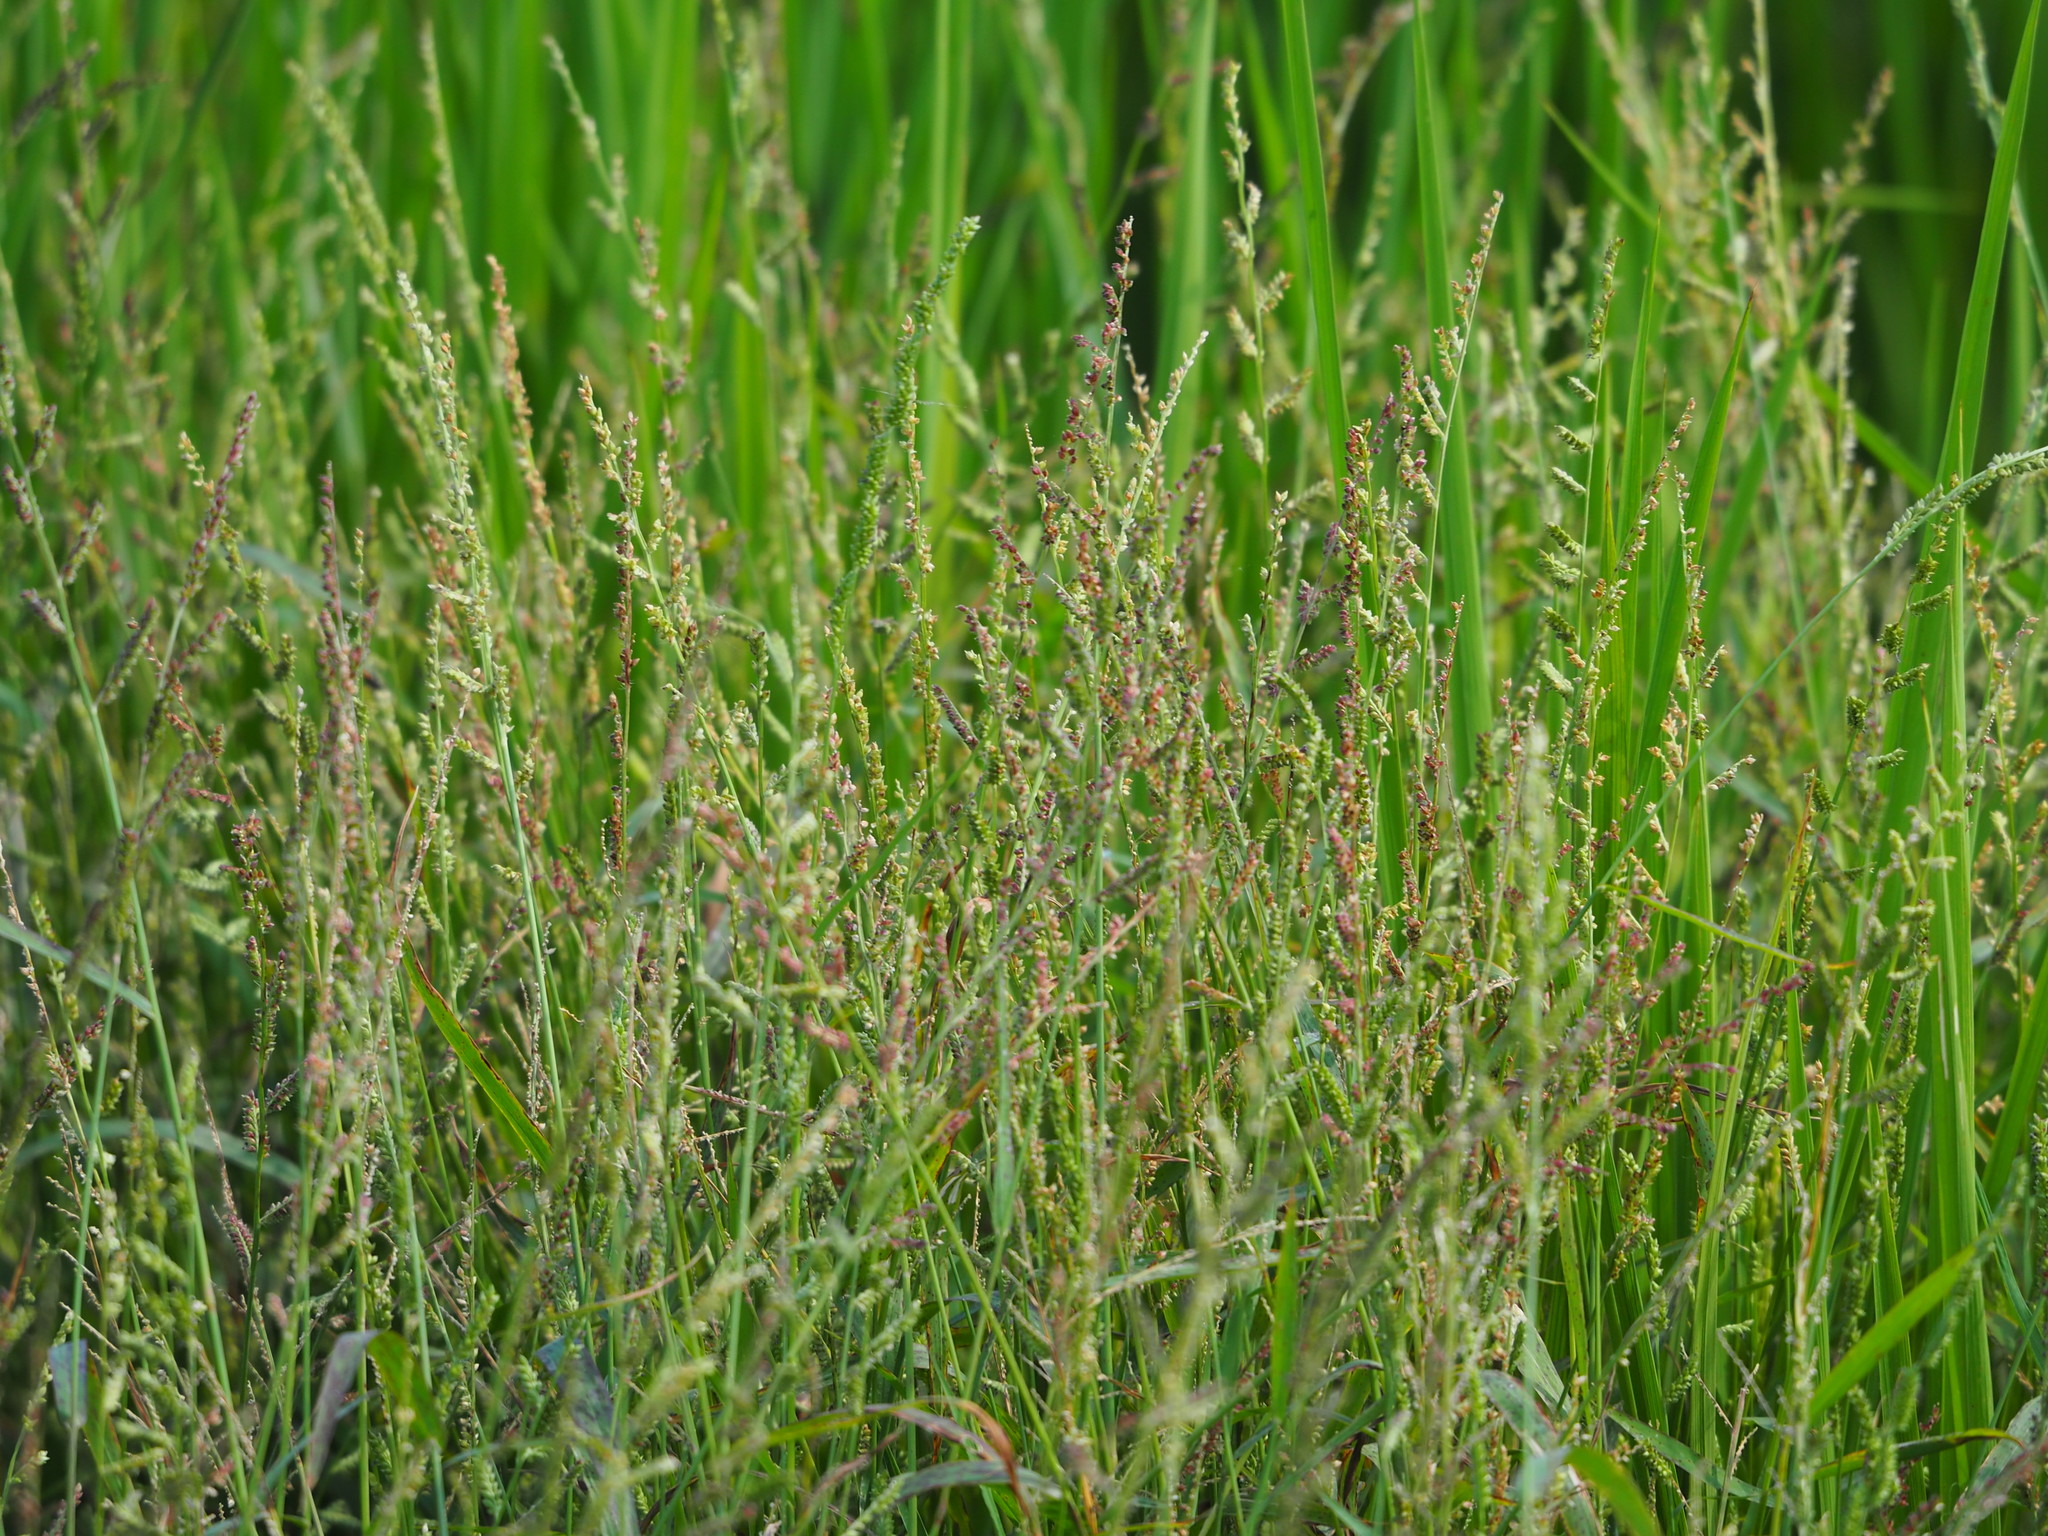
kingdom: Plantae
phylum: Tracheophyta
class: Liliopsida
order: Poales
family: Poaceae
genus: Echinochloa
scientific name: Echinochloa colonum
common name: Jungle rice
